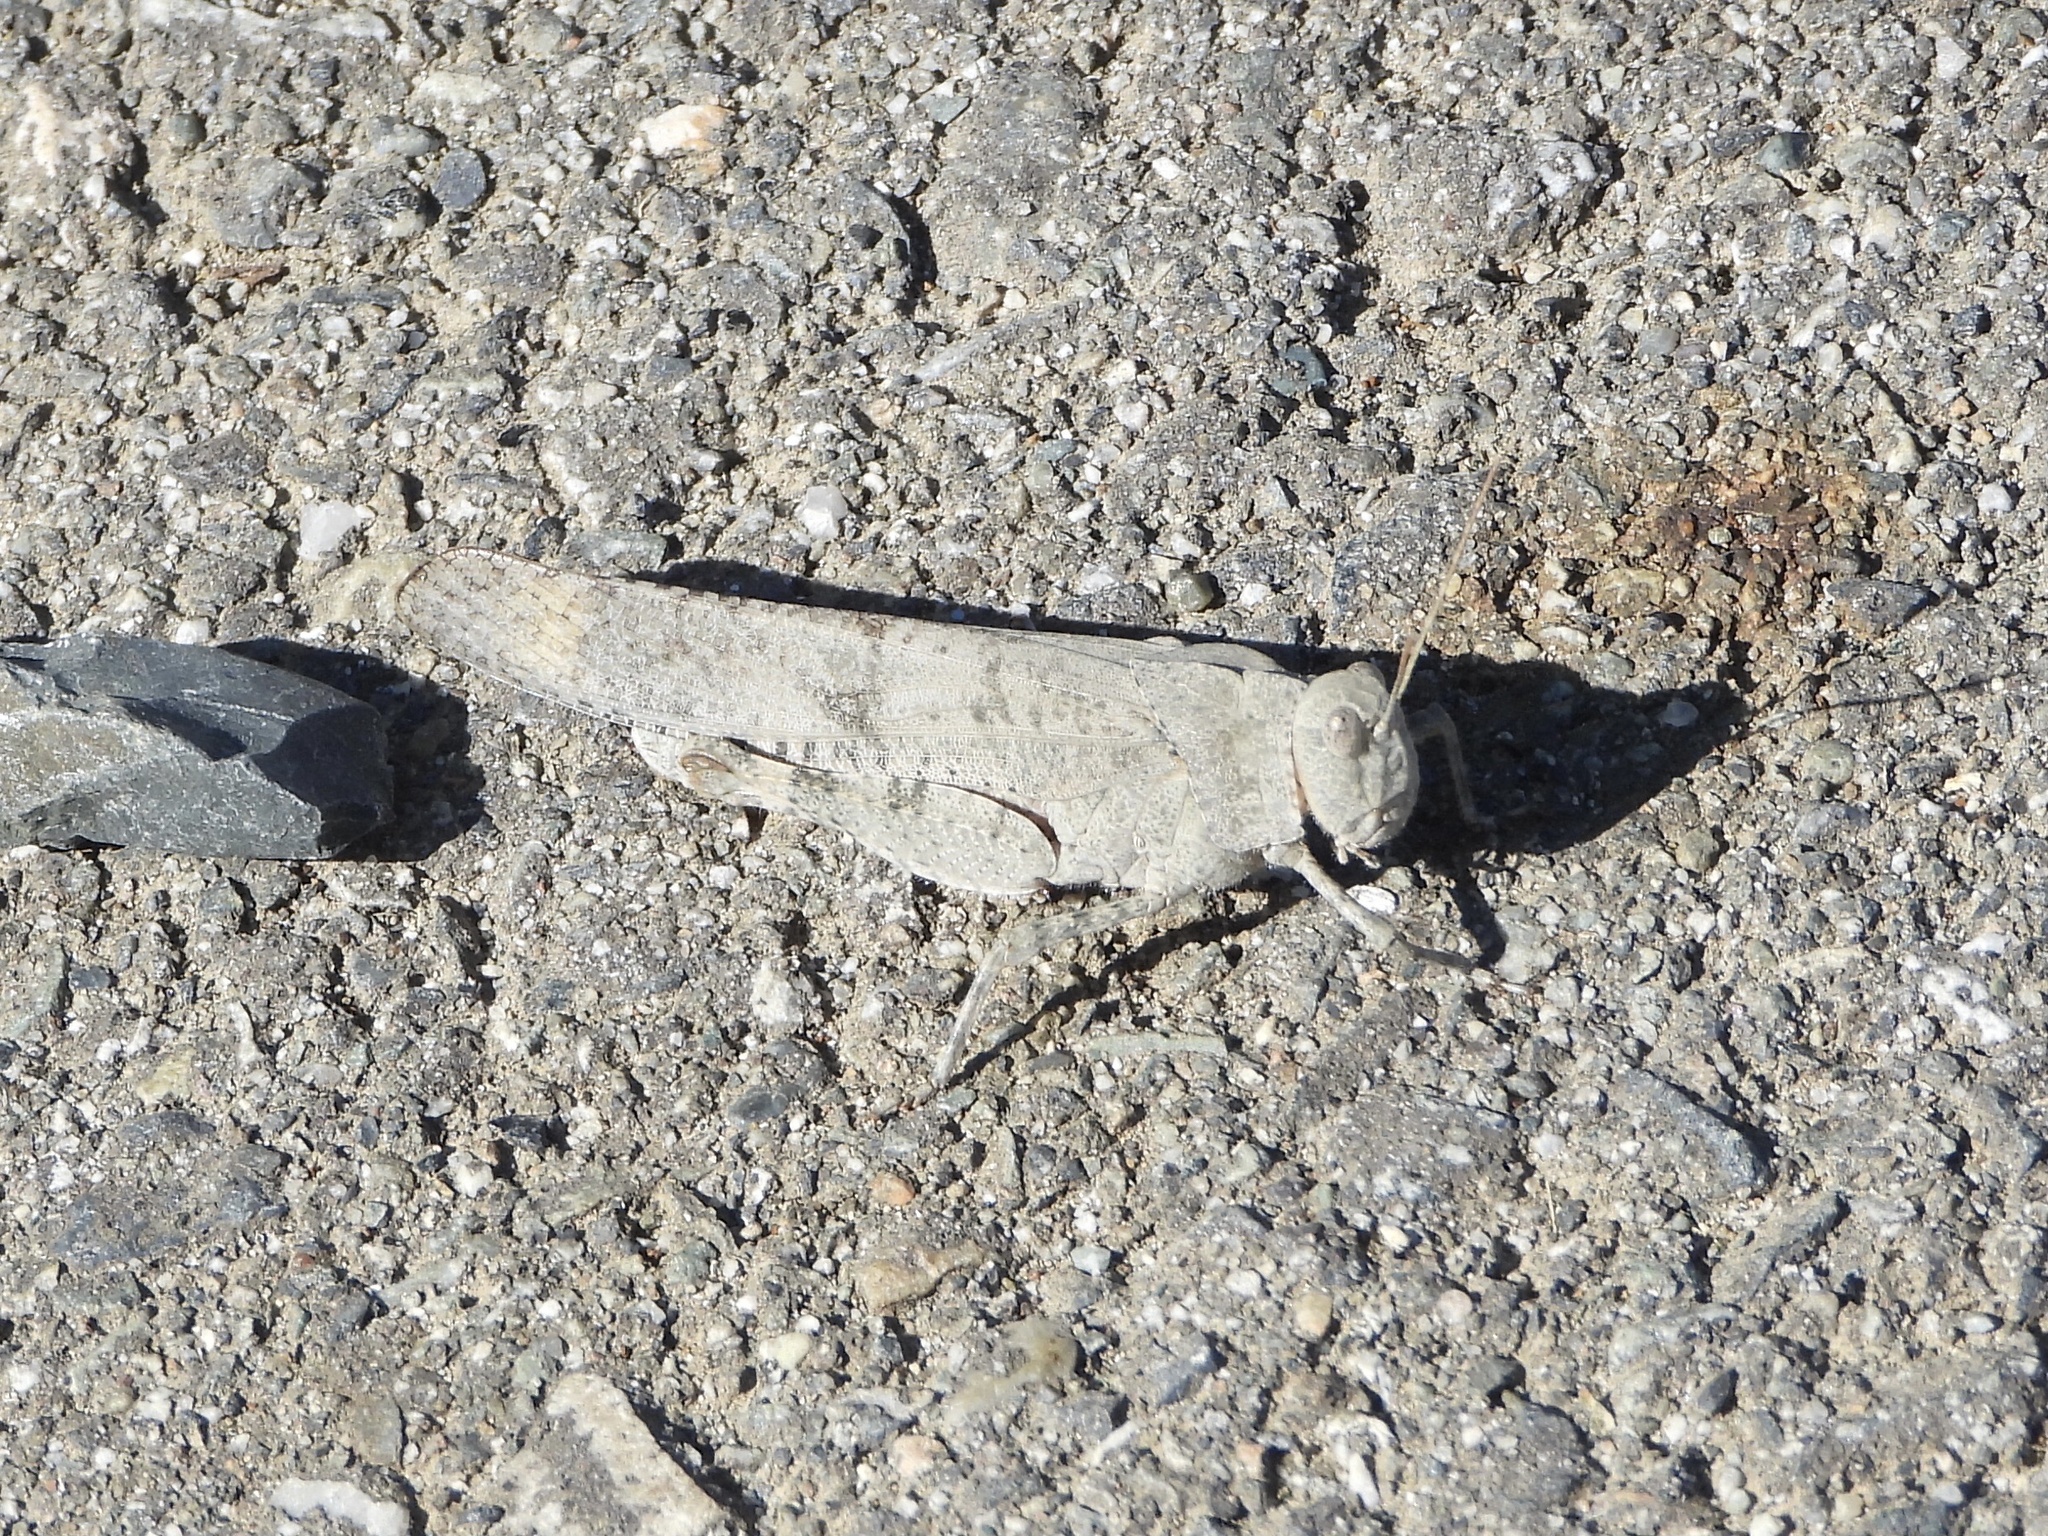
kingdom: Animalia
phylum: Arthropoda
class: Insecta
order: Orthoptera
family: Acrididae
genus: Dissosteira
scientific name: Dissosteira carolina
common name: Carolina grasshopper
